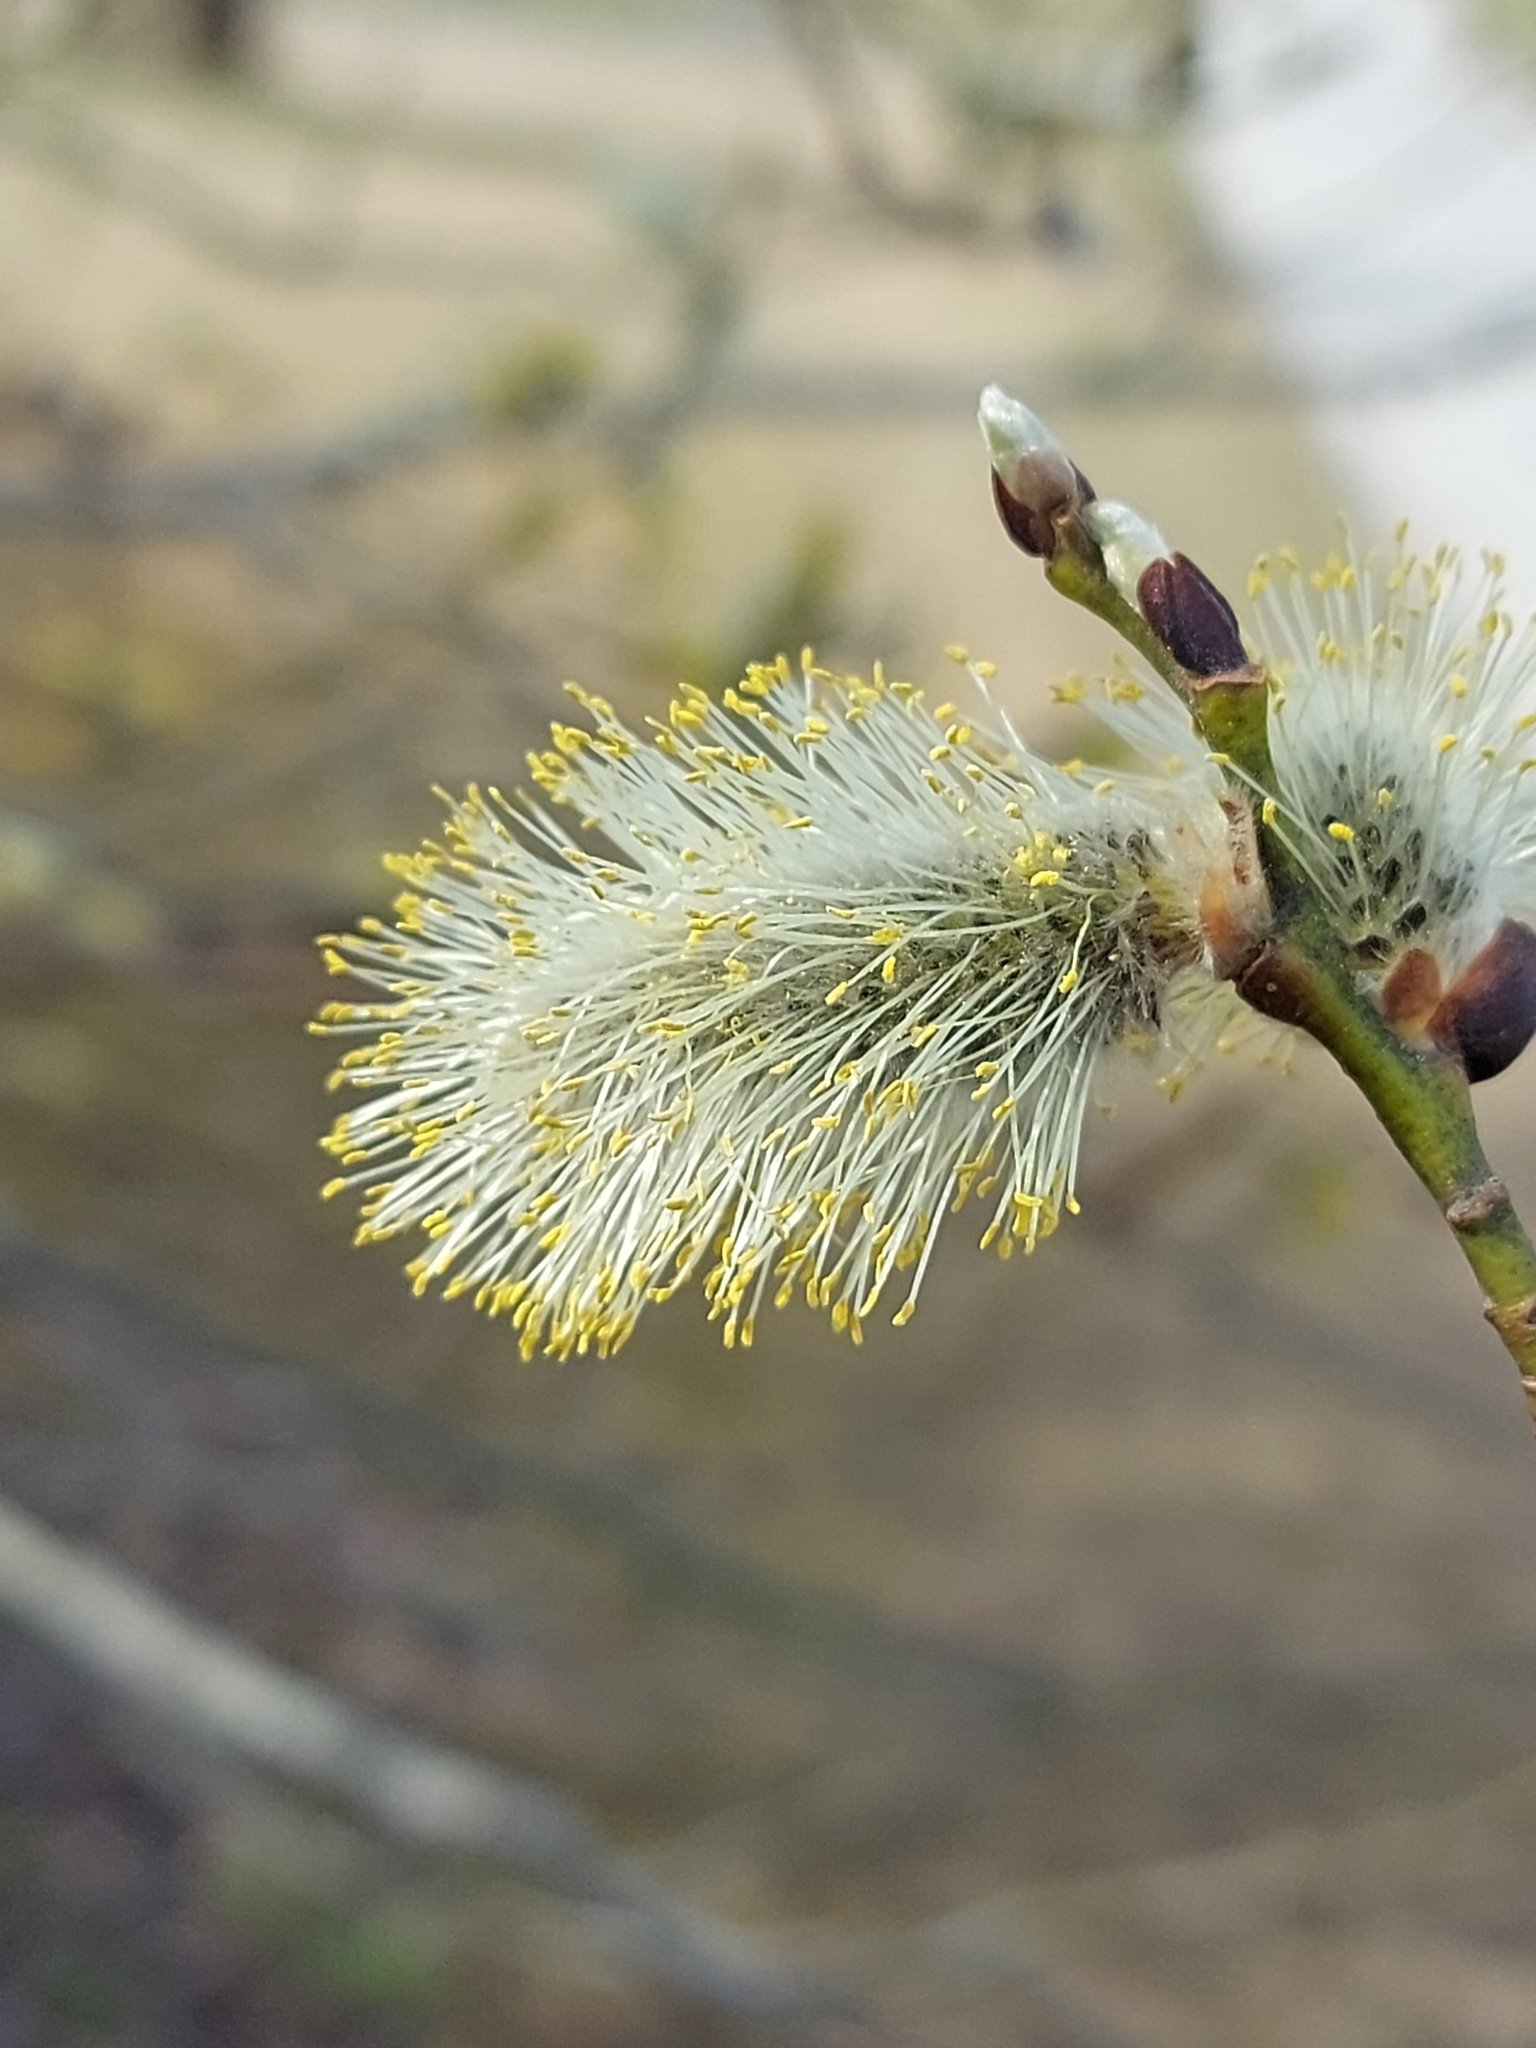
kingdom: Plantae
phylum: Tracheophyta
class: Magnoliopsida
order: Malpighiales
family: Salicaceae
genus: Salix
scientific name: Salix caprea
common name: Goat willow
